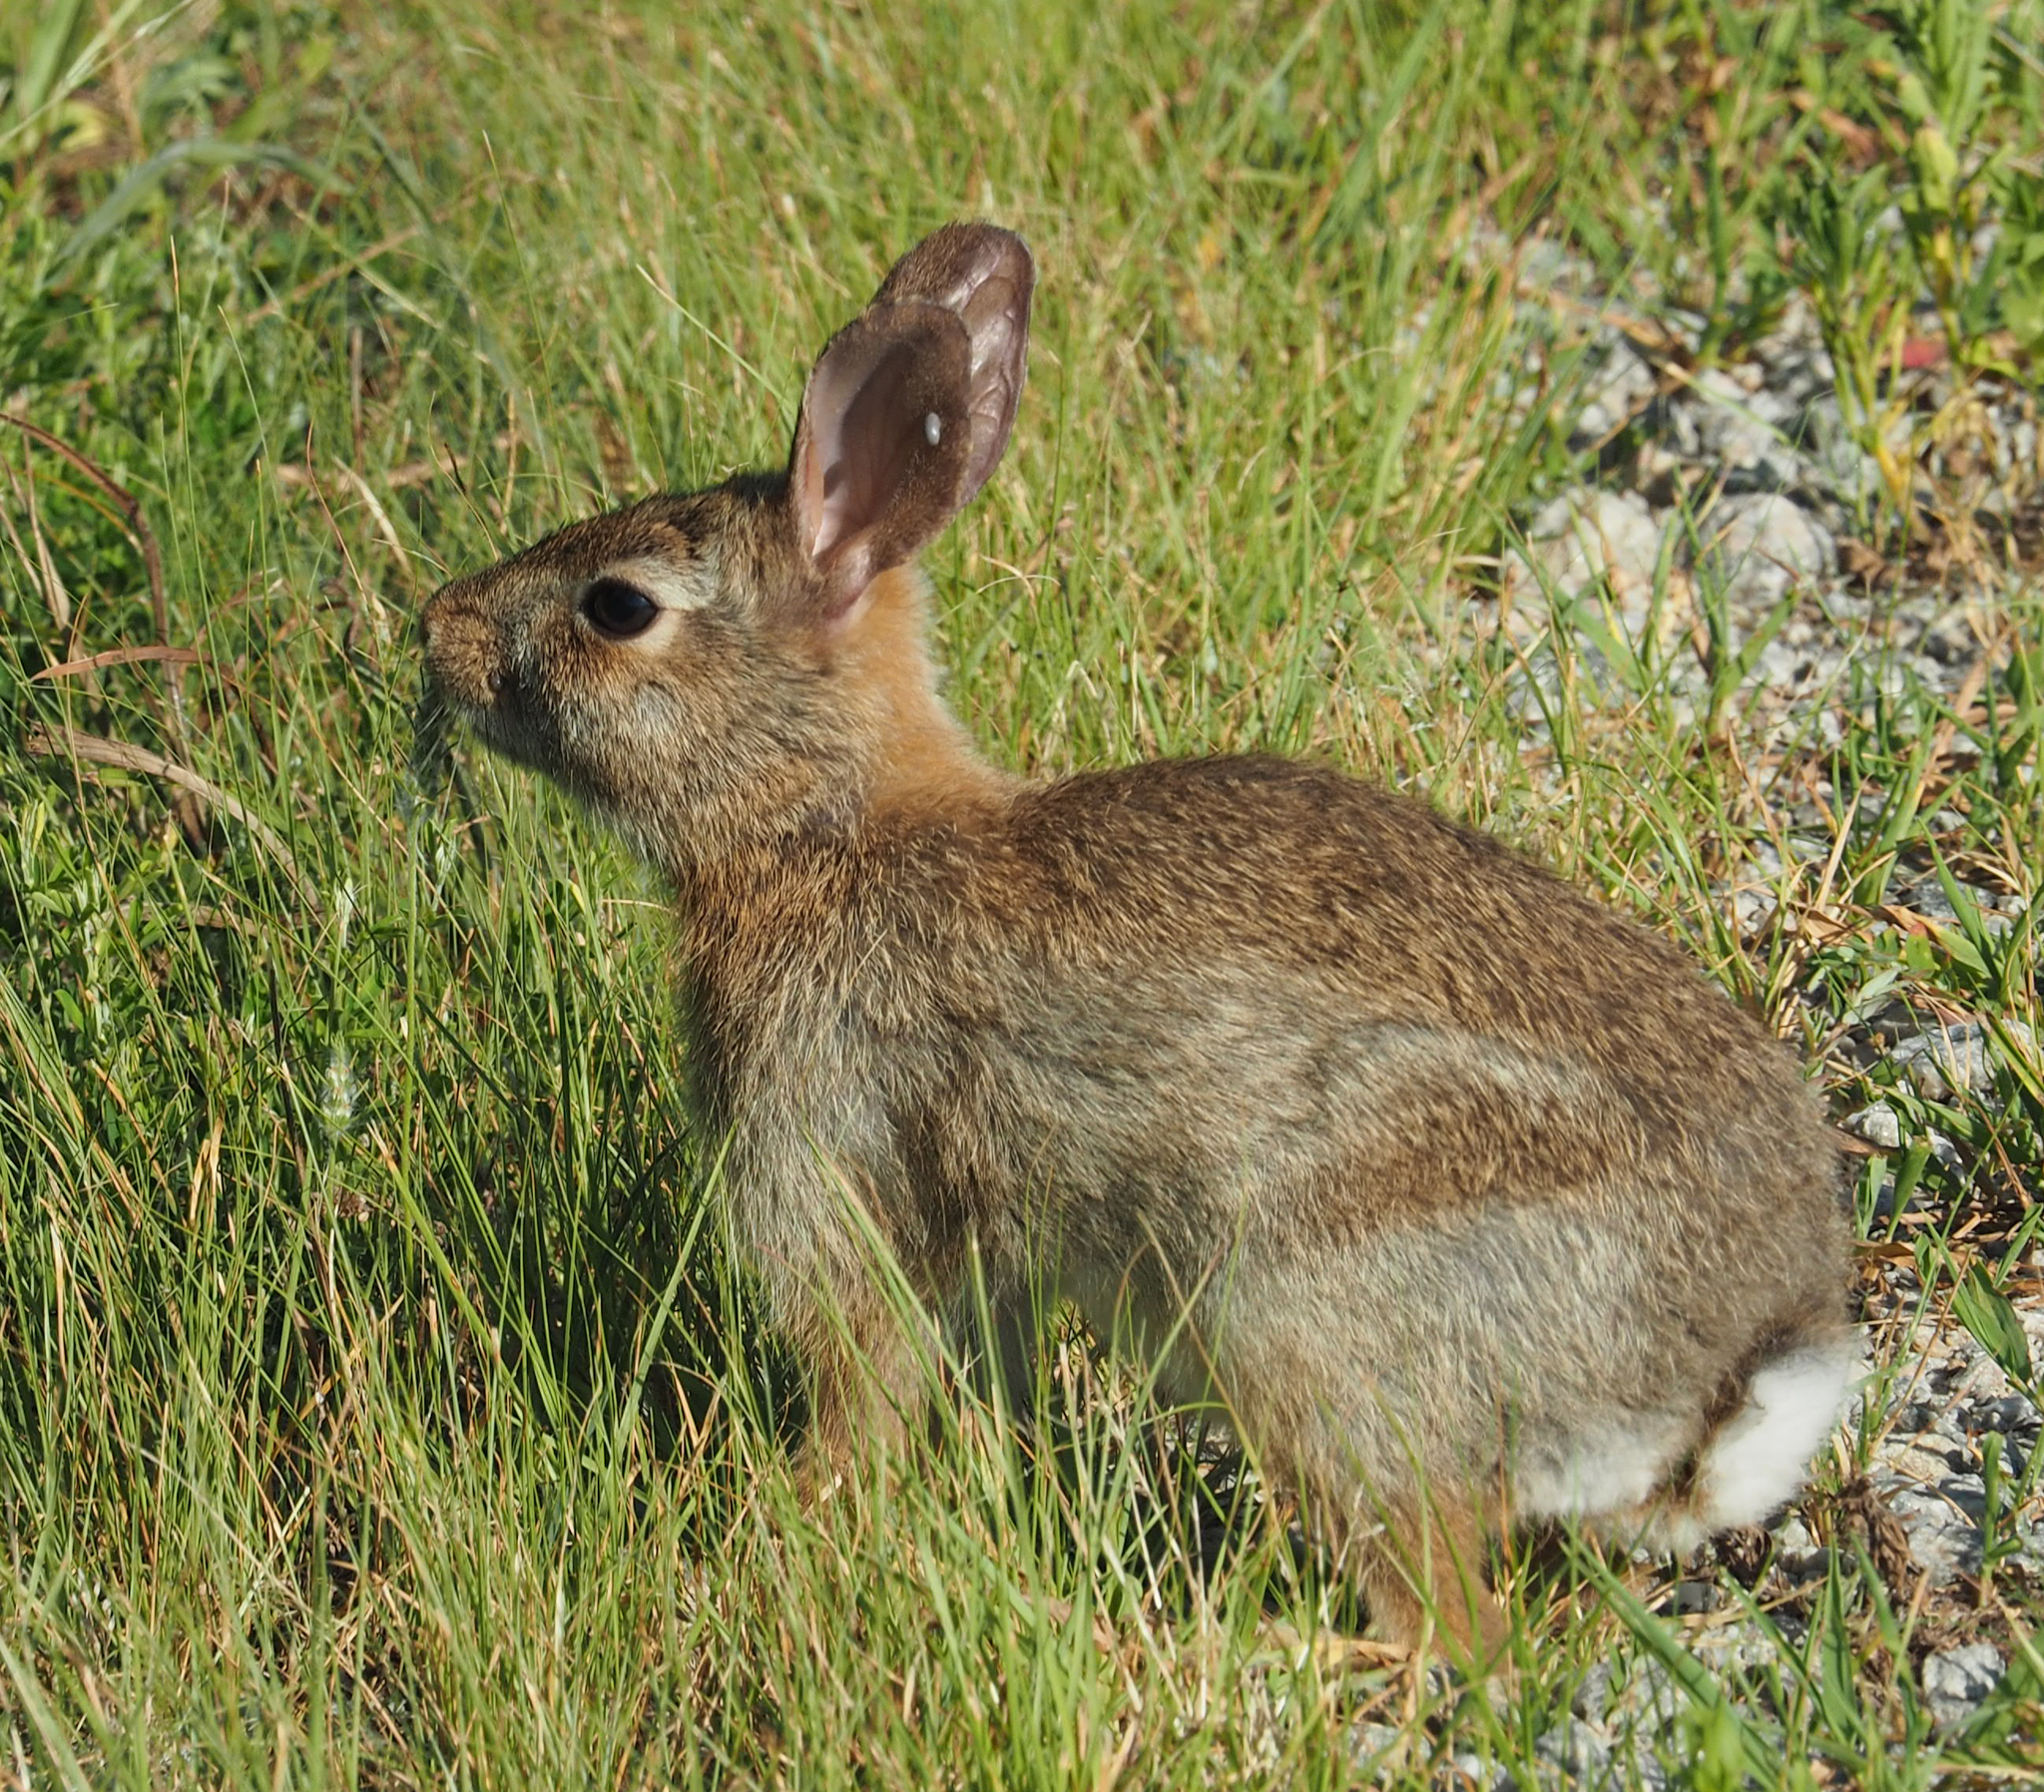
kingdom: Animalia
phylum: Chordata
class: Mammalia
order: Lagomorpha
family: Leporidae
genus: Sylvilagus
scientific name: Sylvilagus floridanus
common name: Eastern cottontail
